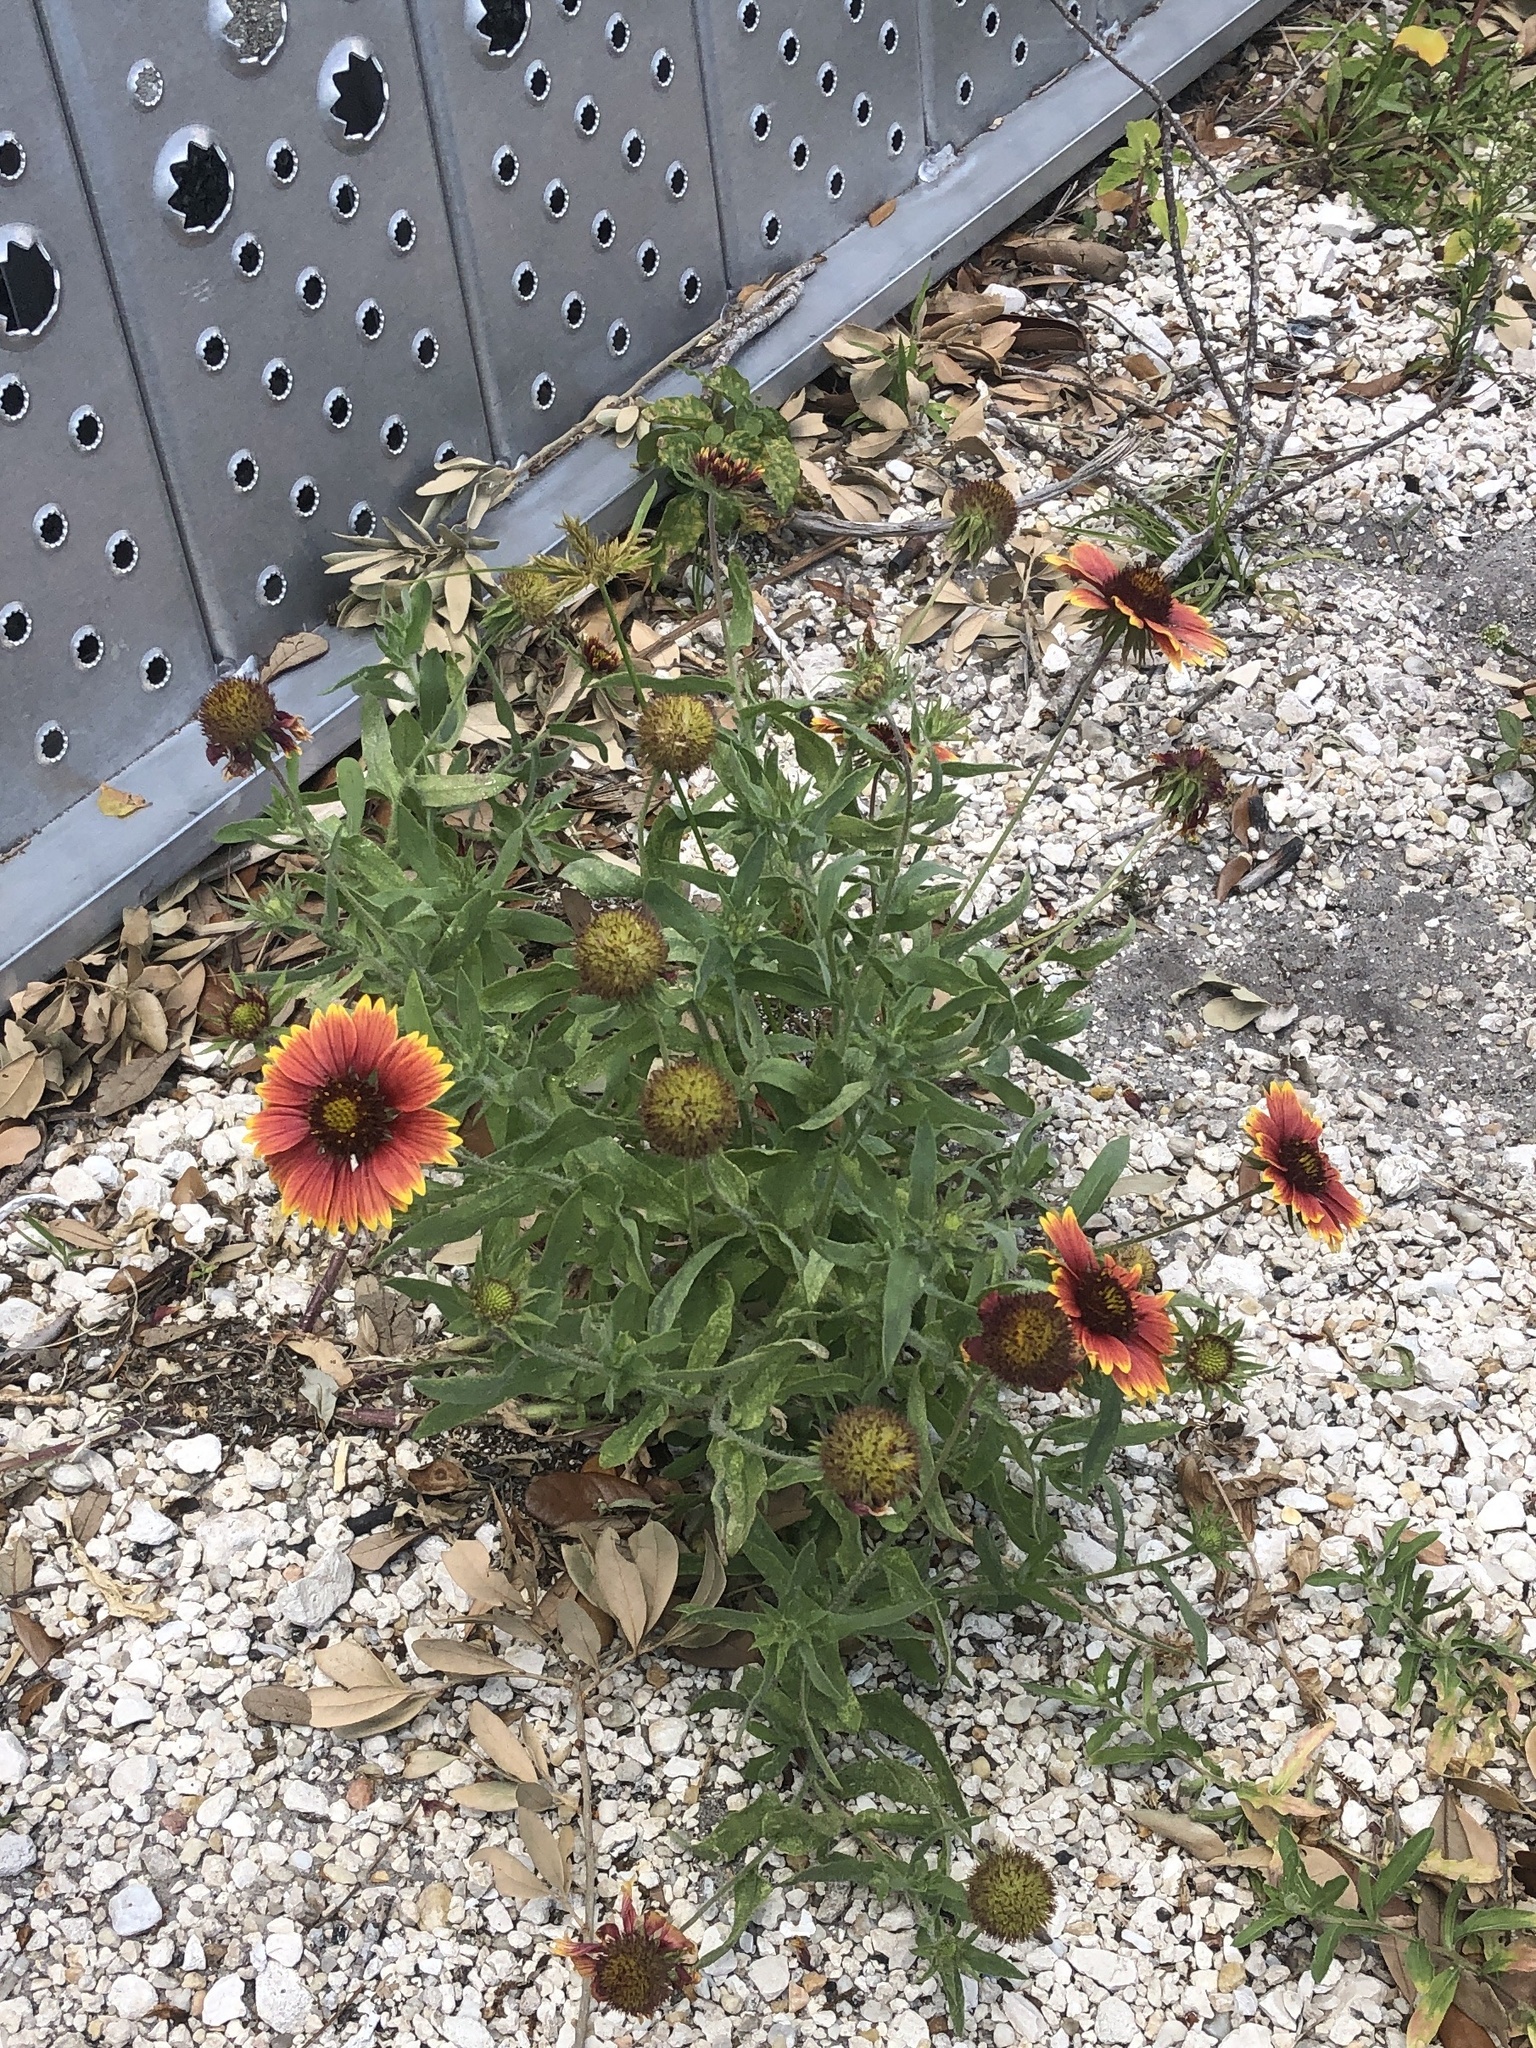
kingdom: Plantae
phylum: Tracheophyta
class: Magnoliopsida
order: Asterales
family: Asteraceae
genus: Gaillardia
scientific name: Gaillardia pulchella
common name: Firewheel
